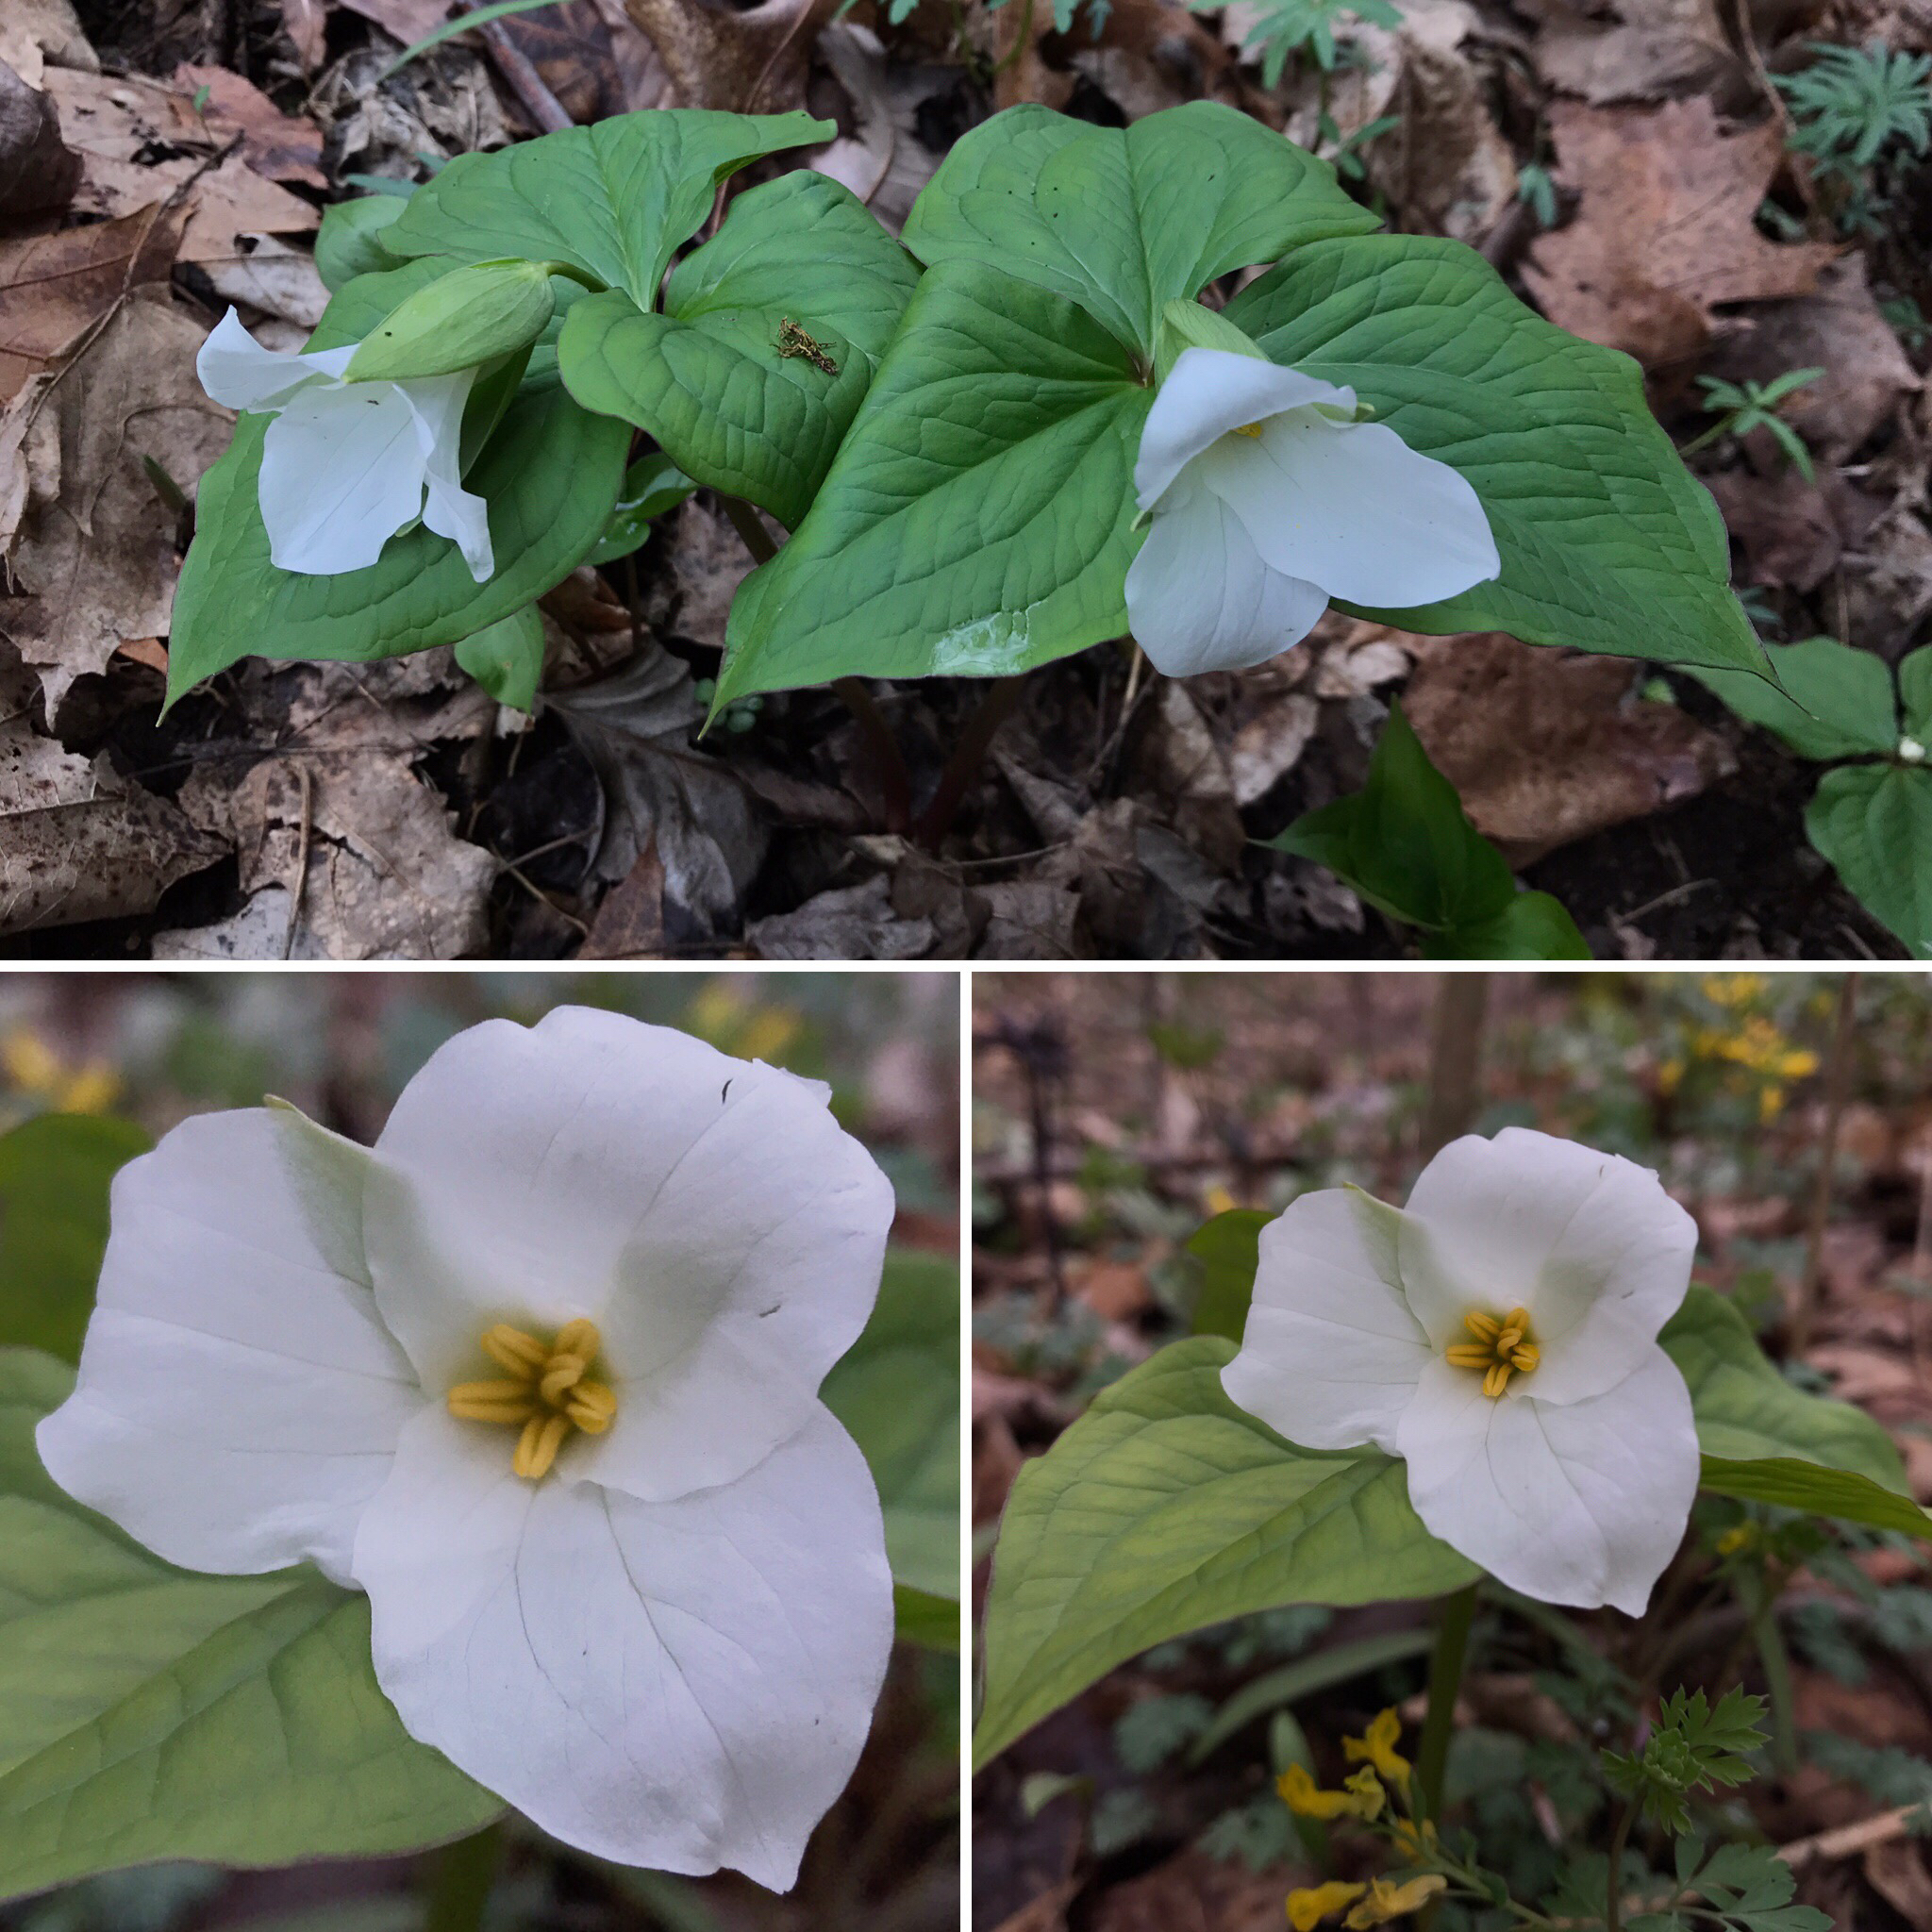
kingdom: Plantae
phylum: Tracheophyta
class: Liliopsida
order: Liliales
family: Melanthiaceae
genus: Trillium
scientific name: Trillium grandiflorum
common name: Great white trillium
